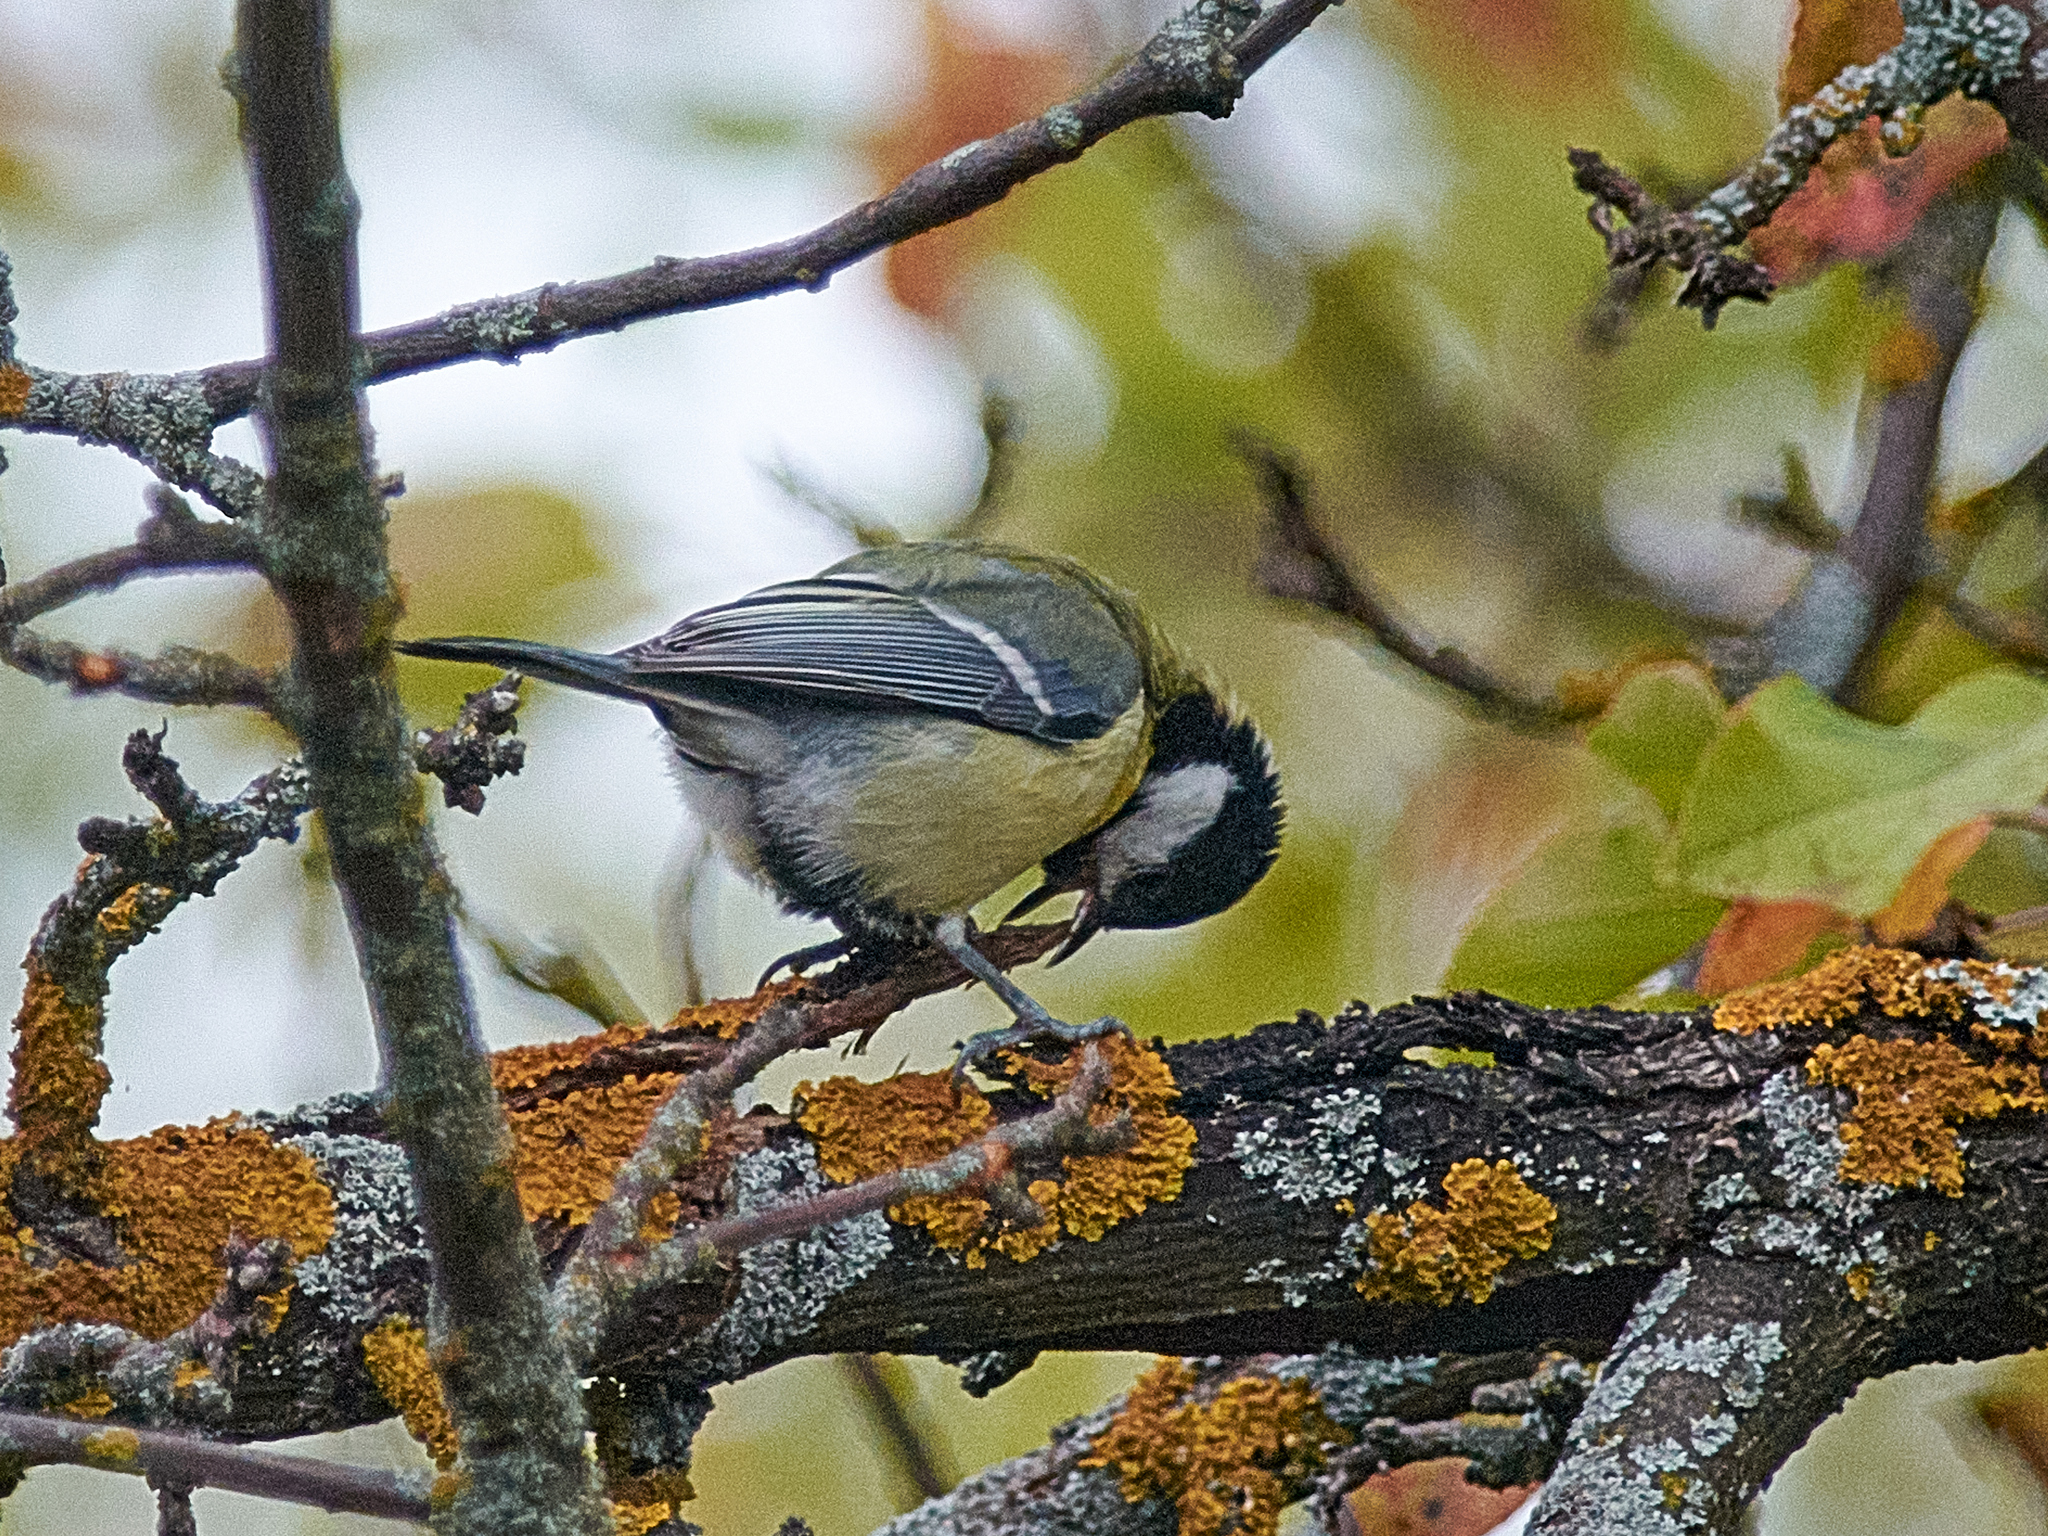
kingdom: Animalia
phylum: Chordata
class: Aves
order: Passeriformes
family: Paridae
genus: Parus
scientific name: Parus major
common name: Great tit
